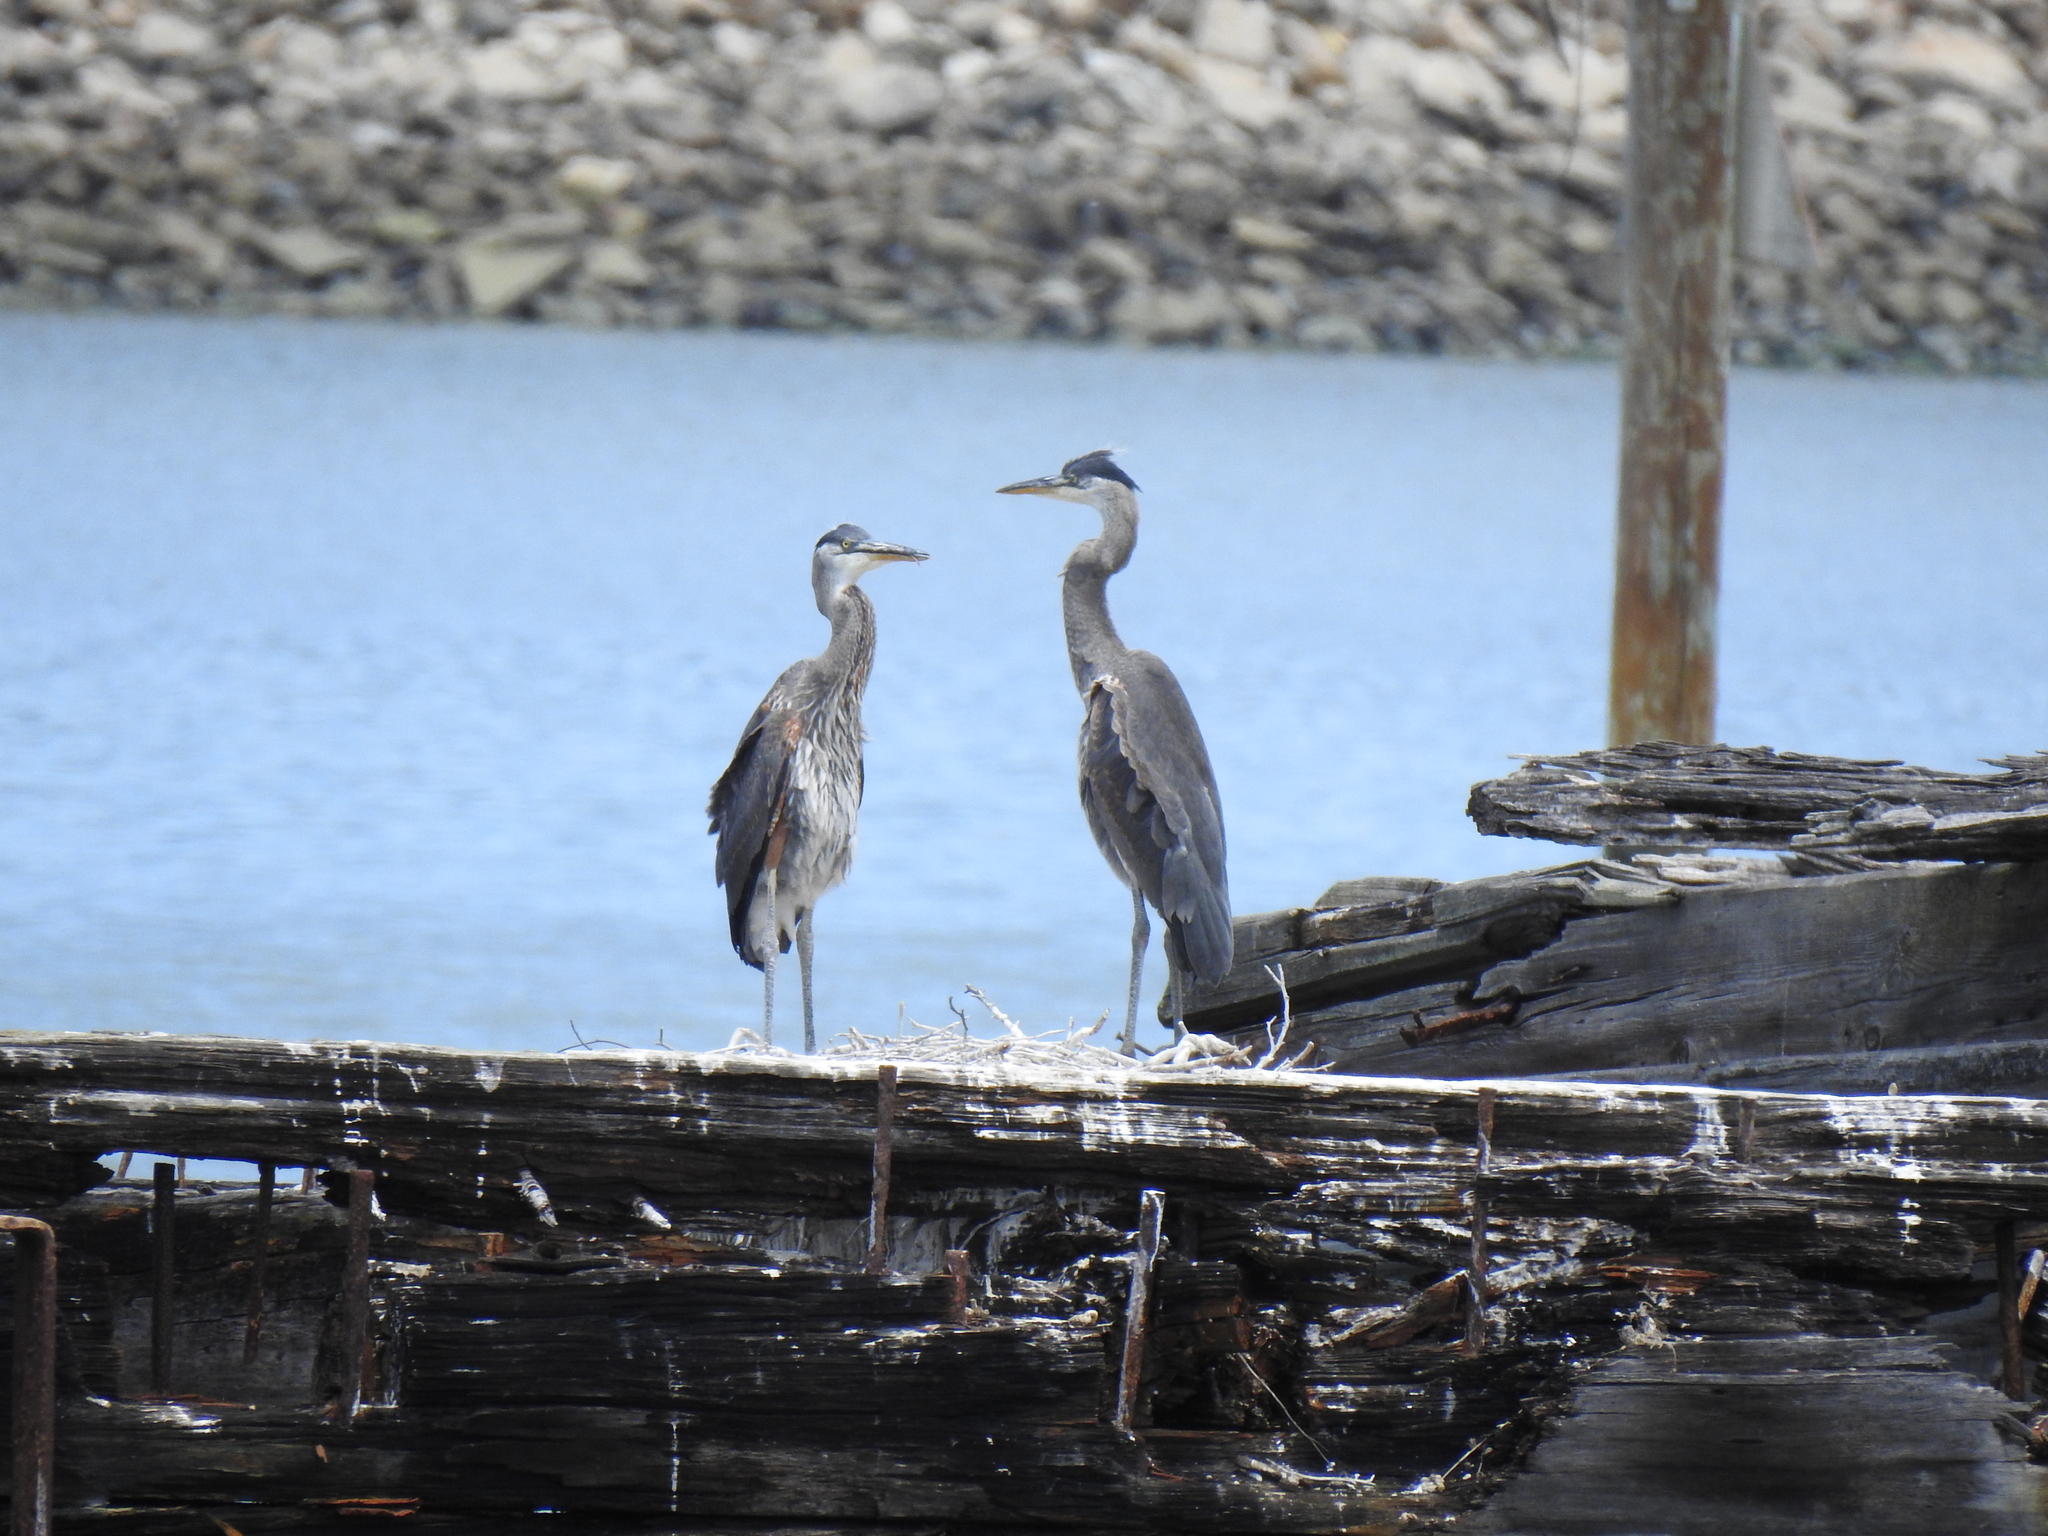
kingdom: Animalia
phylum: Chordata
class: Aves
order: Pelecaniformes
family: Ardeidae
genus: Ardea
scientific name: Ardea herodias
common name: Great blue heron
